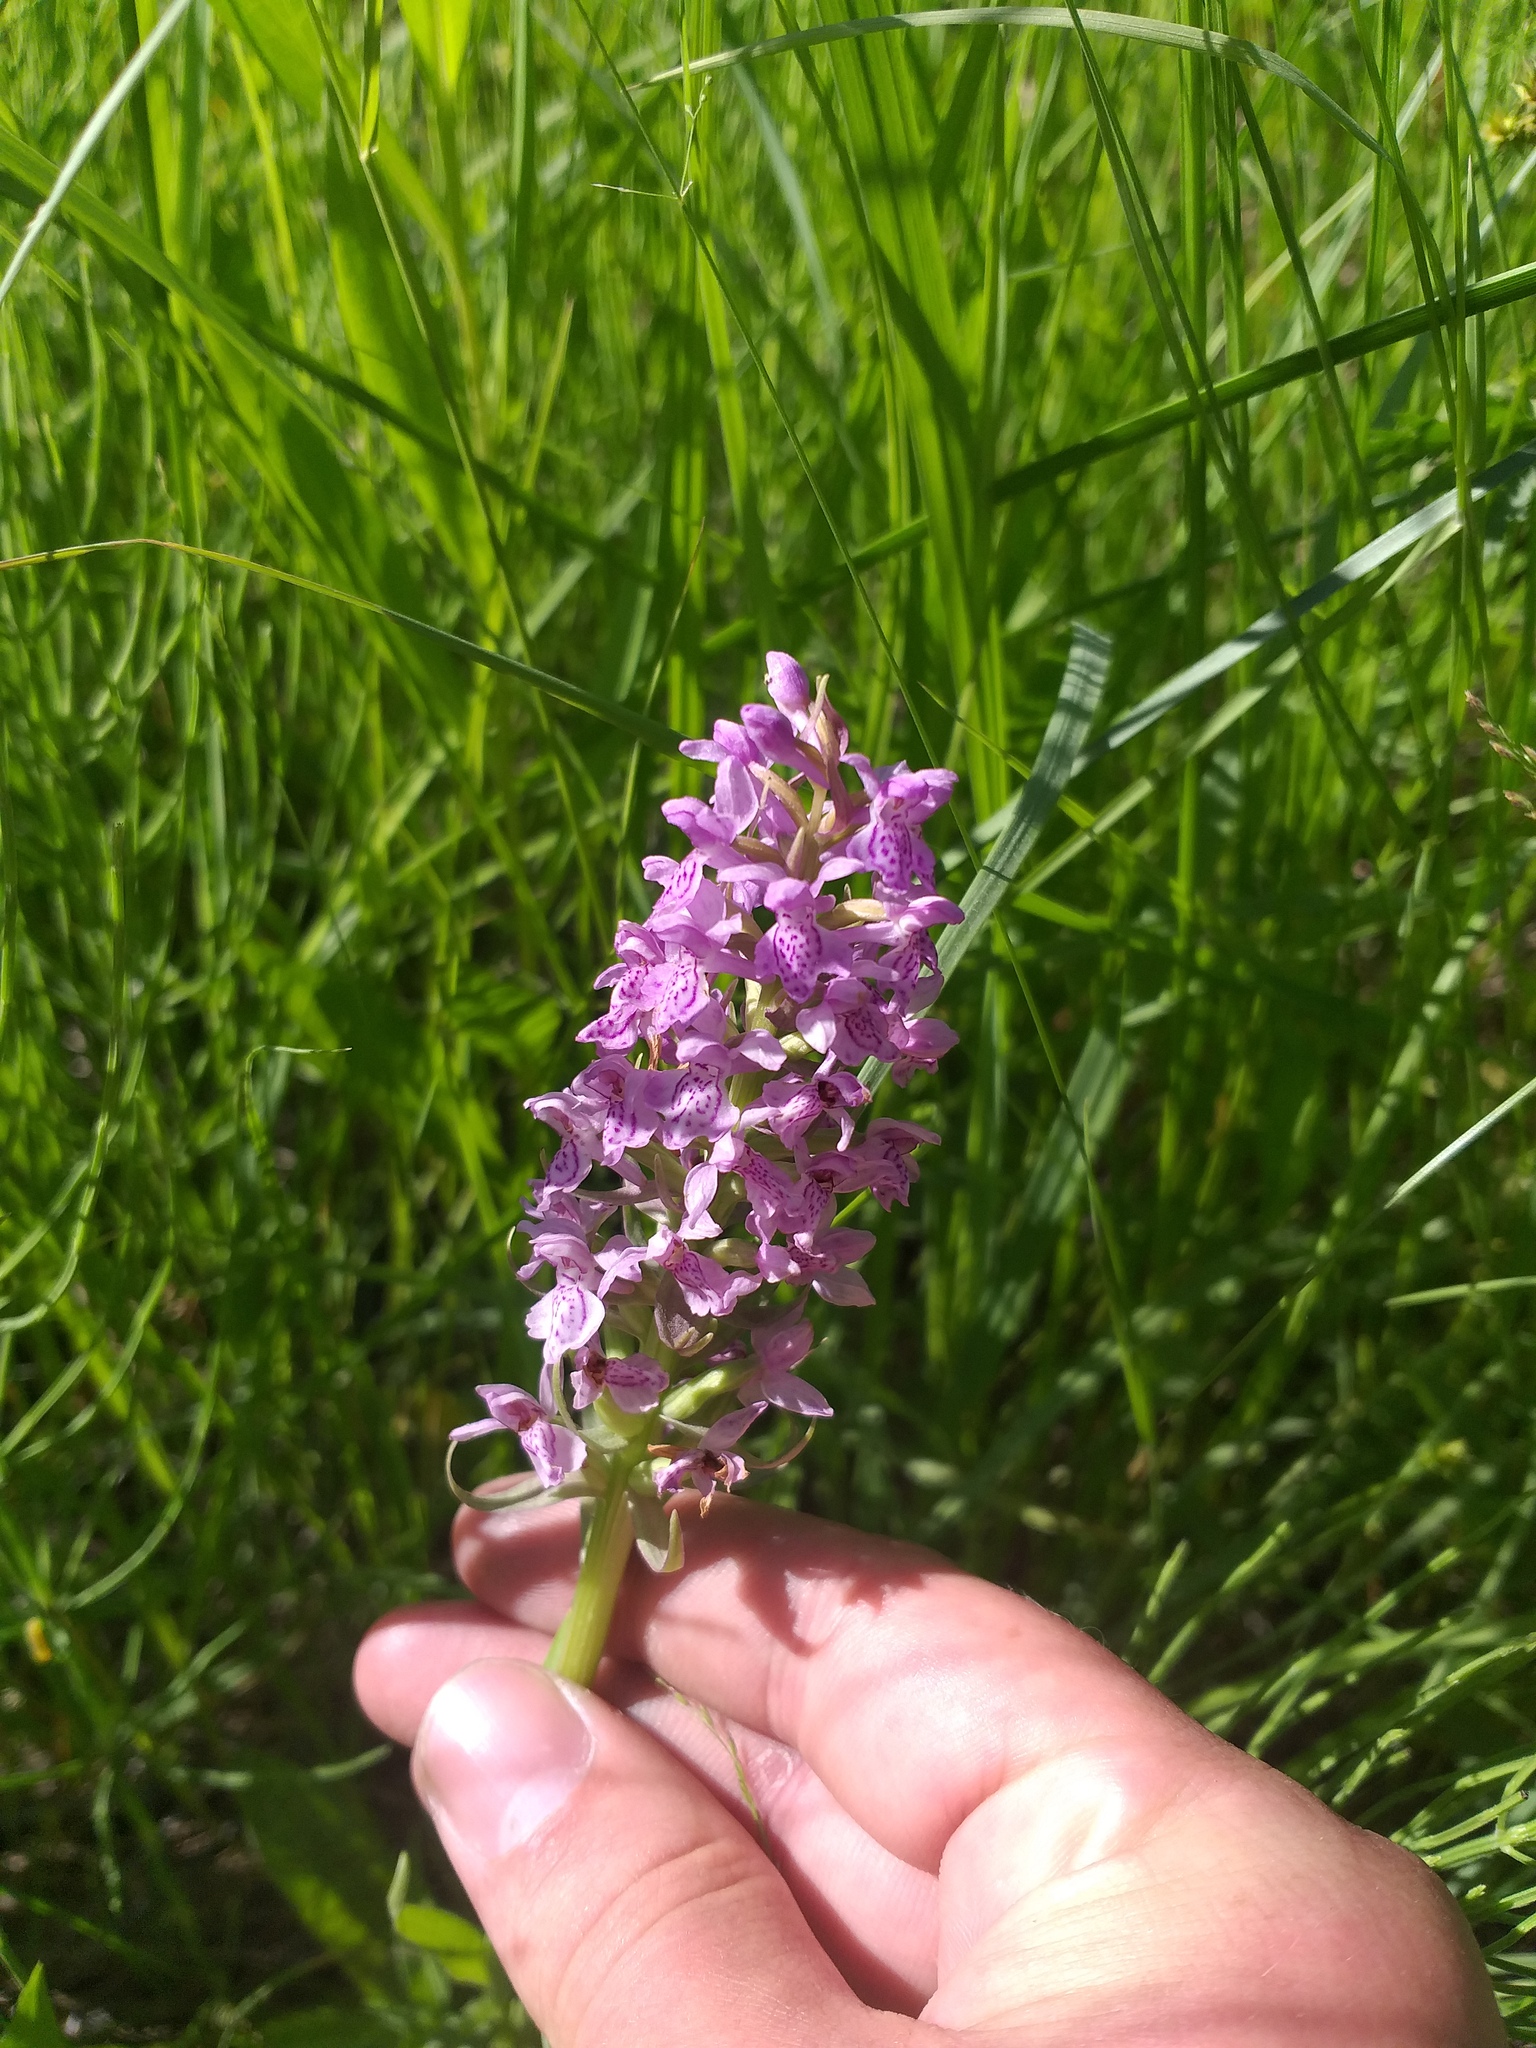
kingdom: Plantae
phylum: Tracheophyta
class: Liliopsida
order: Asparagales
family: Orchidaceae
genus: Dactylorhiza
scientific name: Dactylorhiza majalis
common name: Marsh orchid
